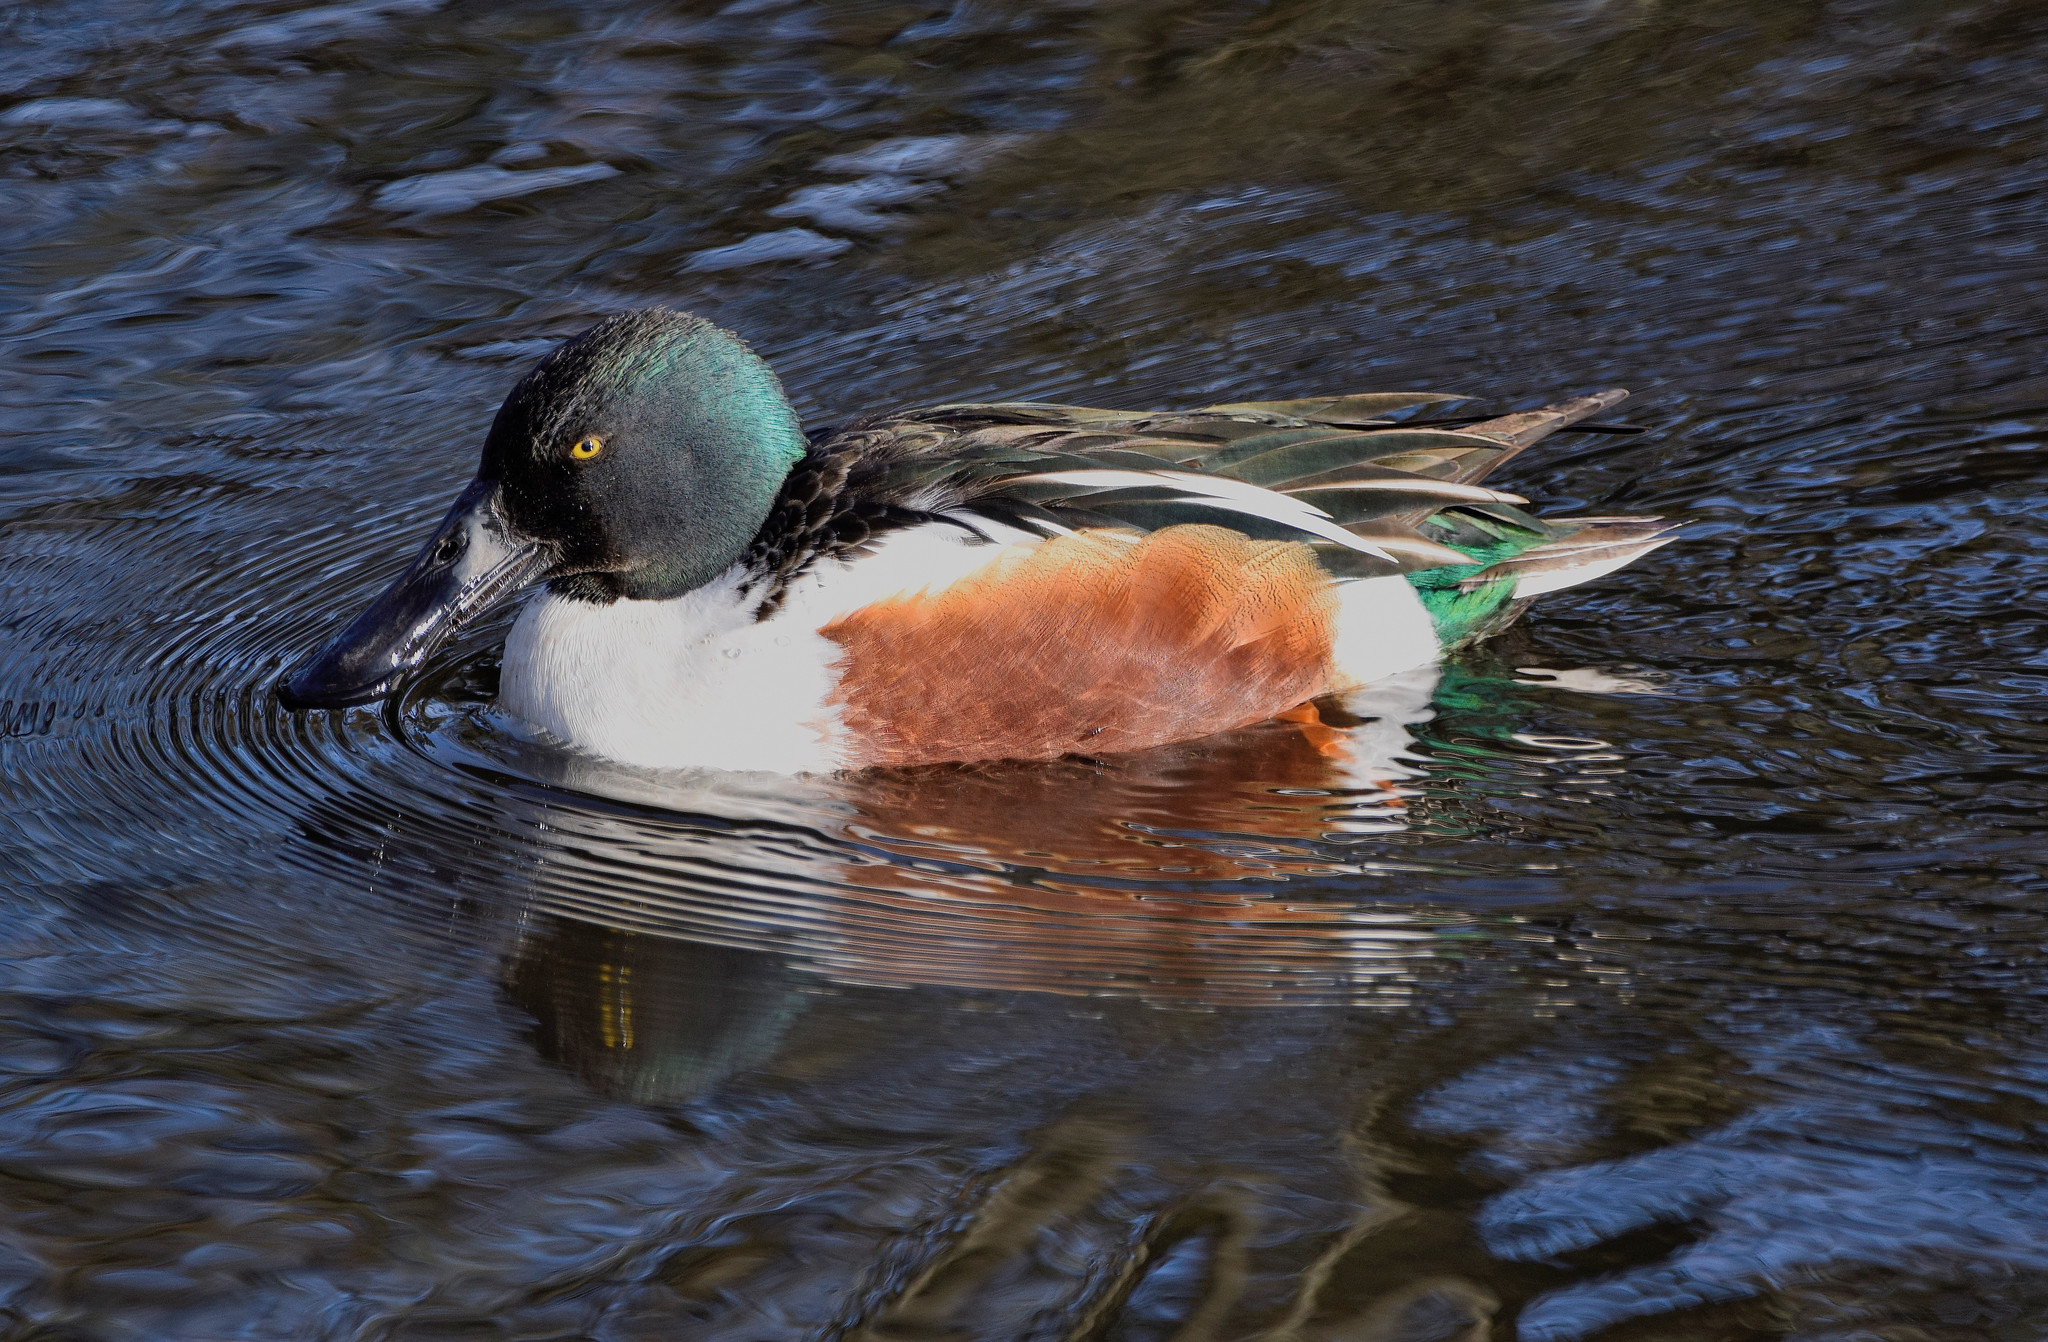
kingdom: Animalia
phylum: Chordata
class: Aves
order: Anseriformes
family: Anatidae
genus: Spatula
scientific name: Spatula clypeata
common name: Northern shoveler
